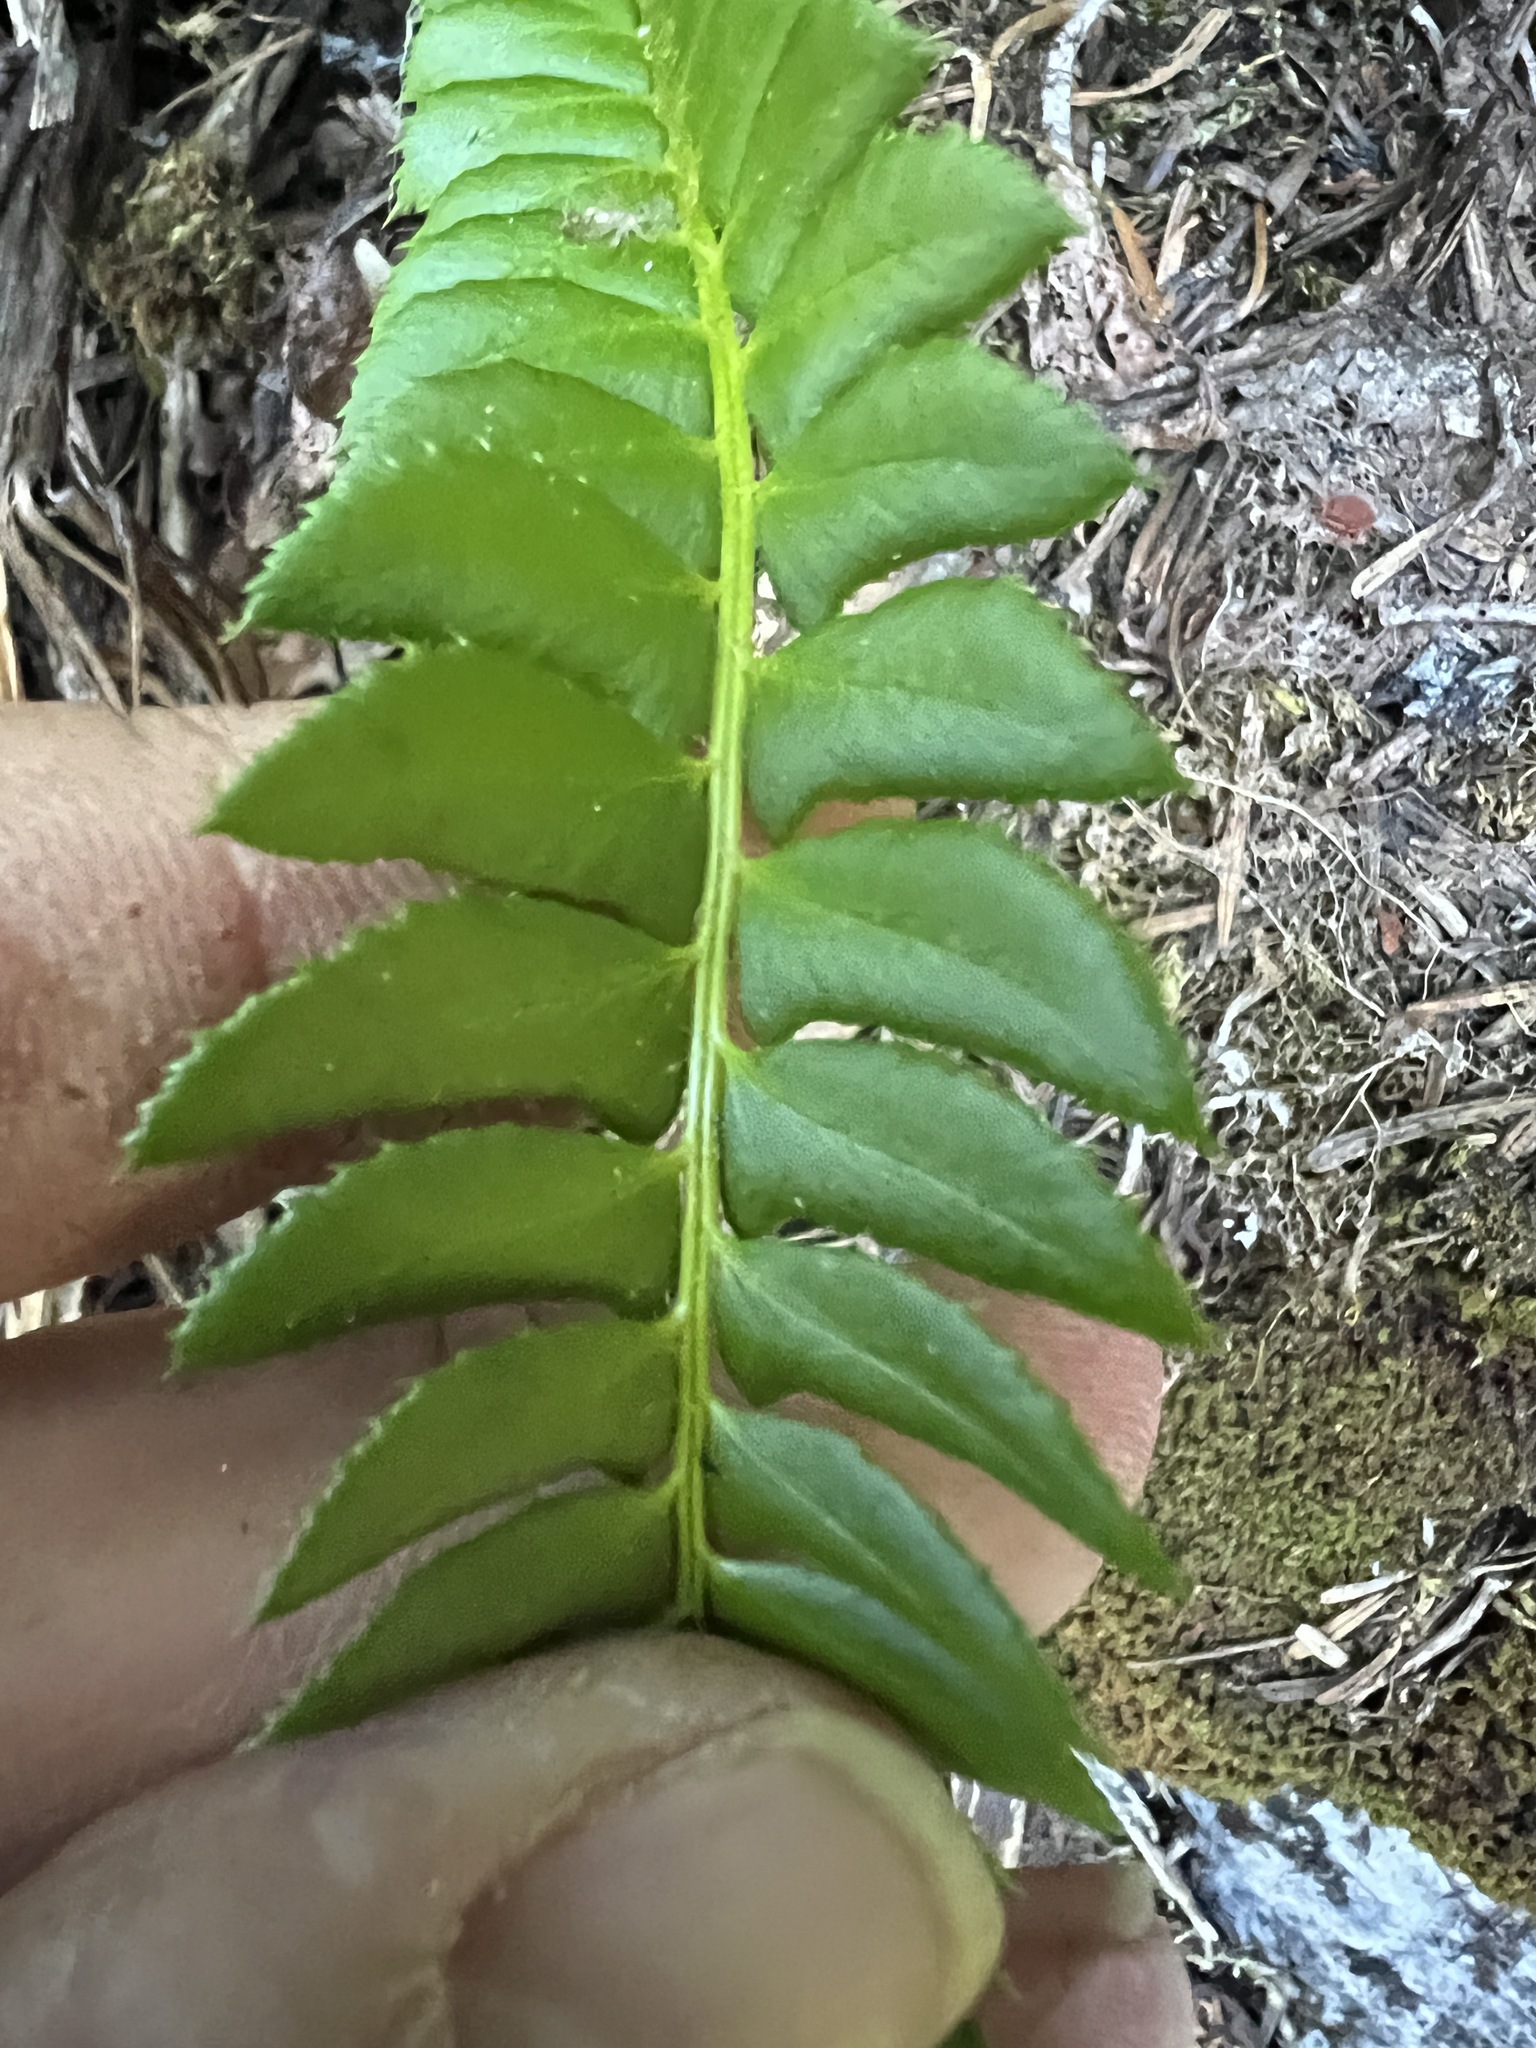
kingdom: Plantae
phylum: Tracheophyta
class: Polypodiopsida
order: Polypodiales
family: Dryopteridaceae
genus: Polystichum
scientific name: Polystichum lonchitis
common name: Holly fern
